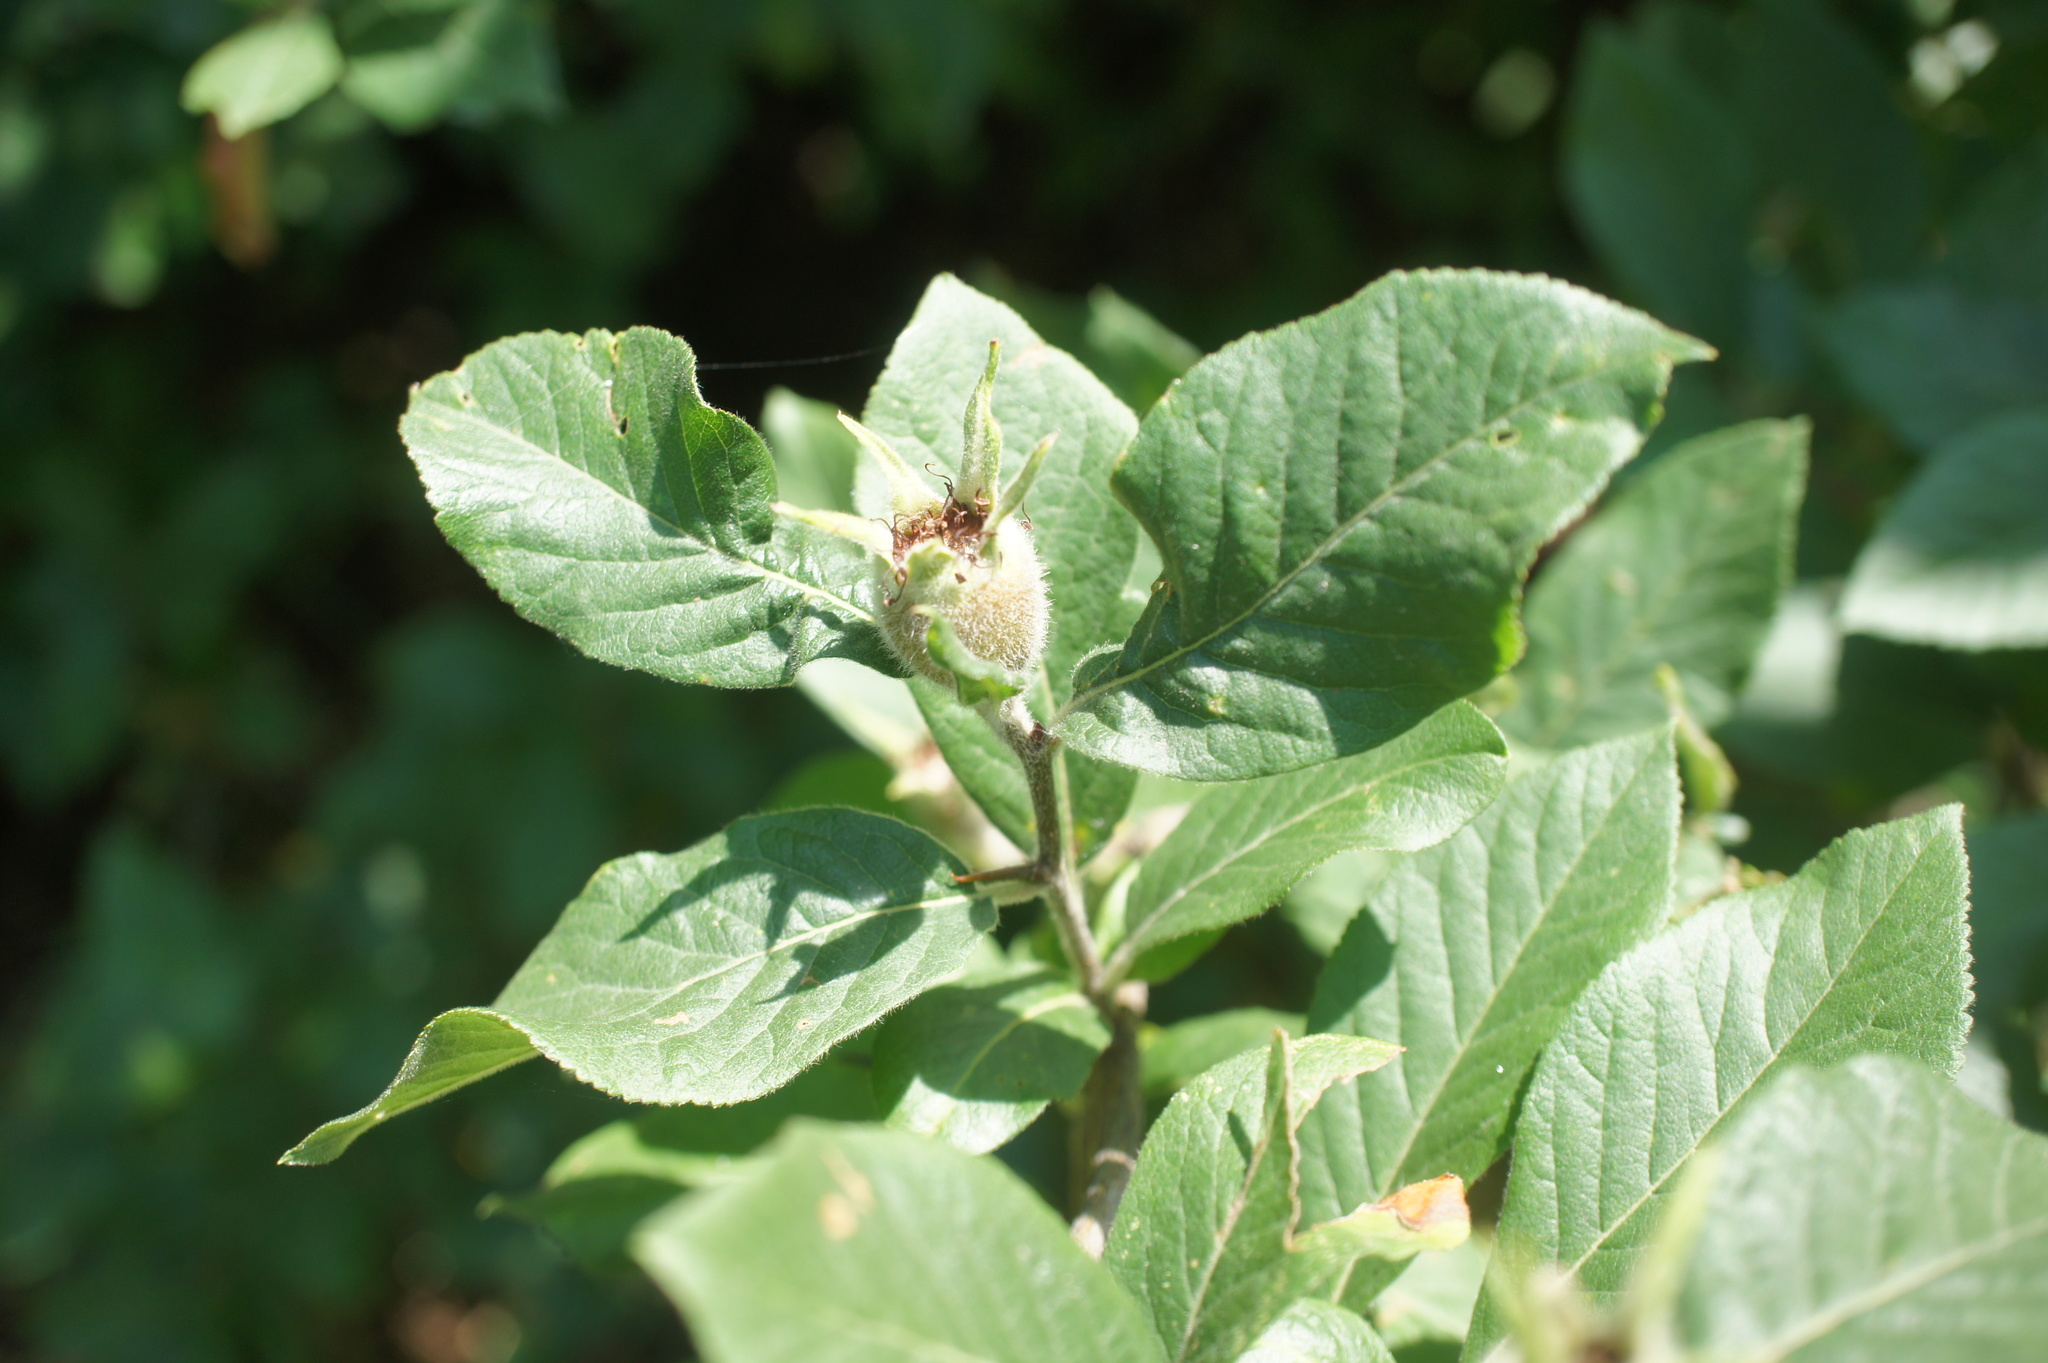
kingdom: Plantae
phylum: Tracheophyta
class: Magnoliopsida
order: Rosales
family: Rosaceae
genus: Mespilus
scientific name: Mespilus germanica
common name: Medlar
